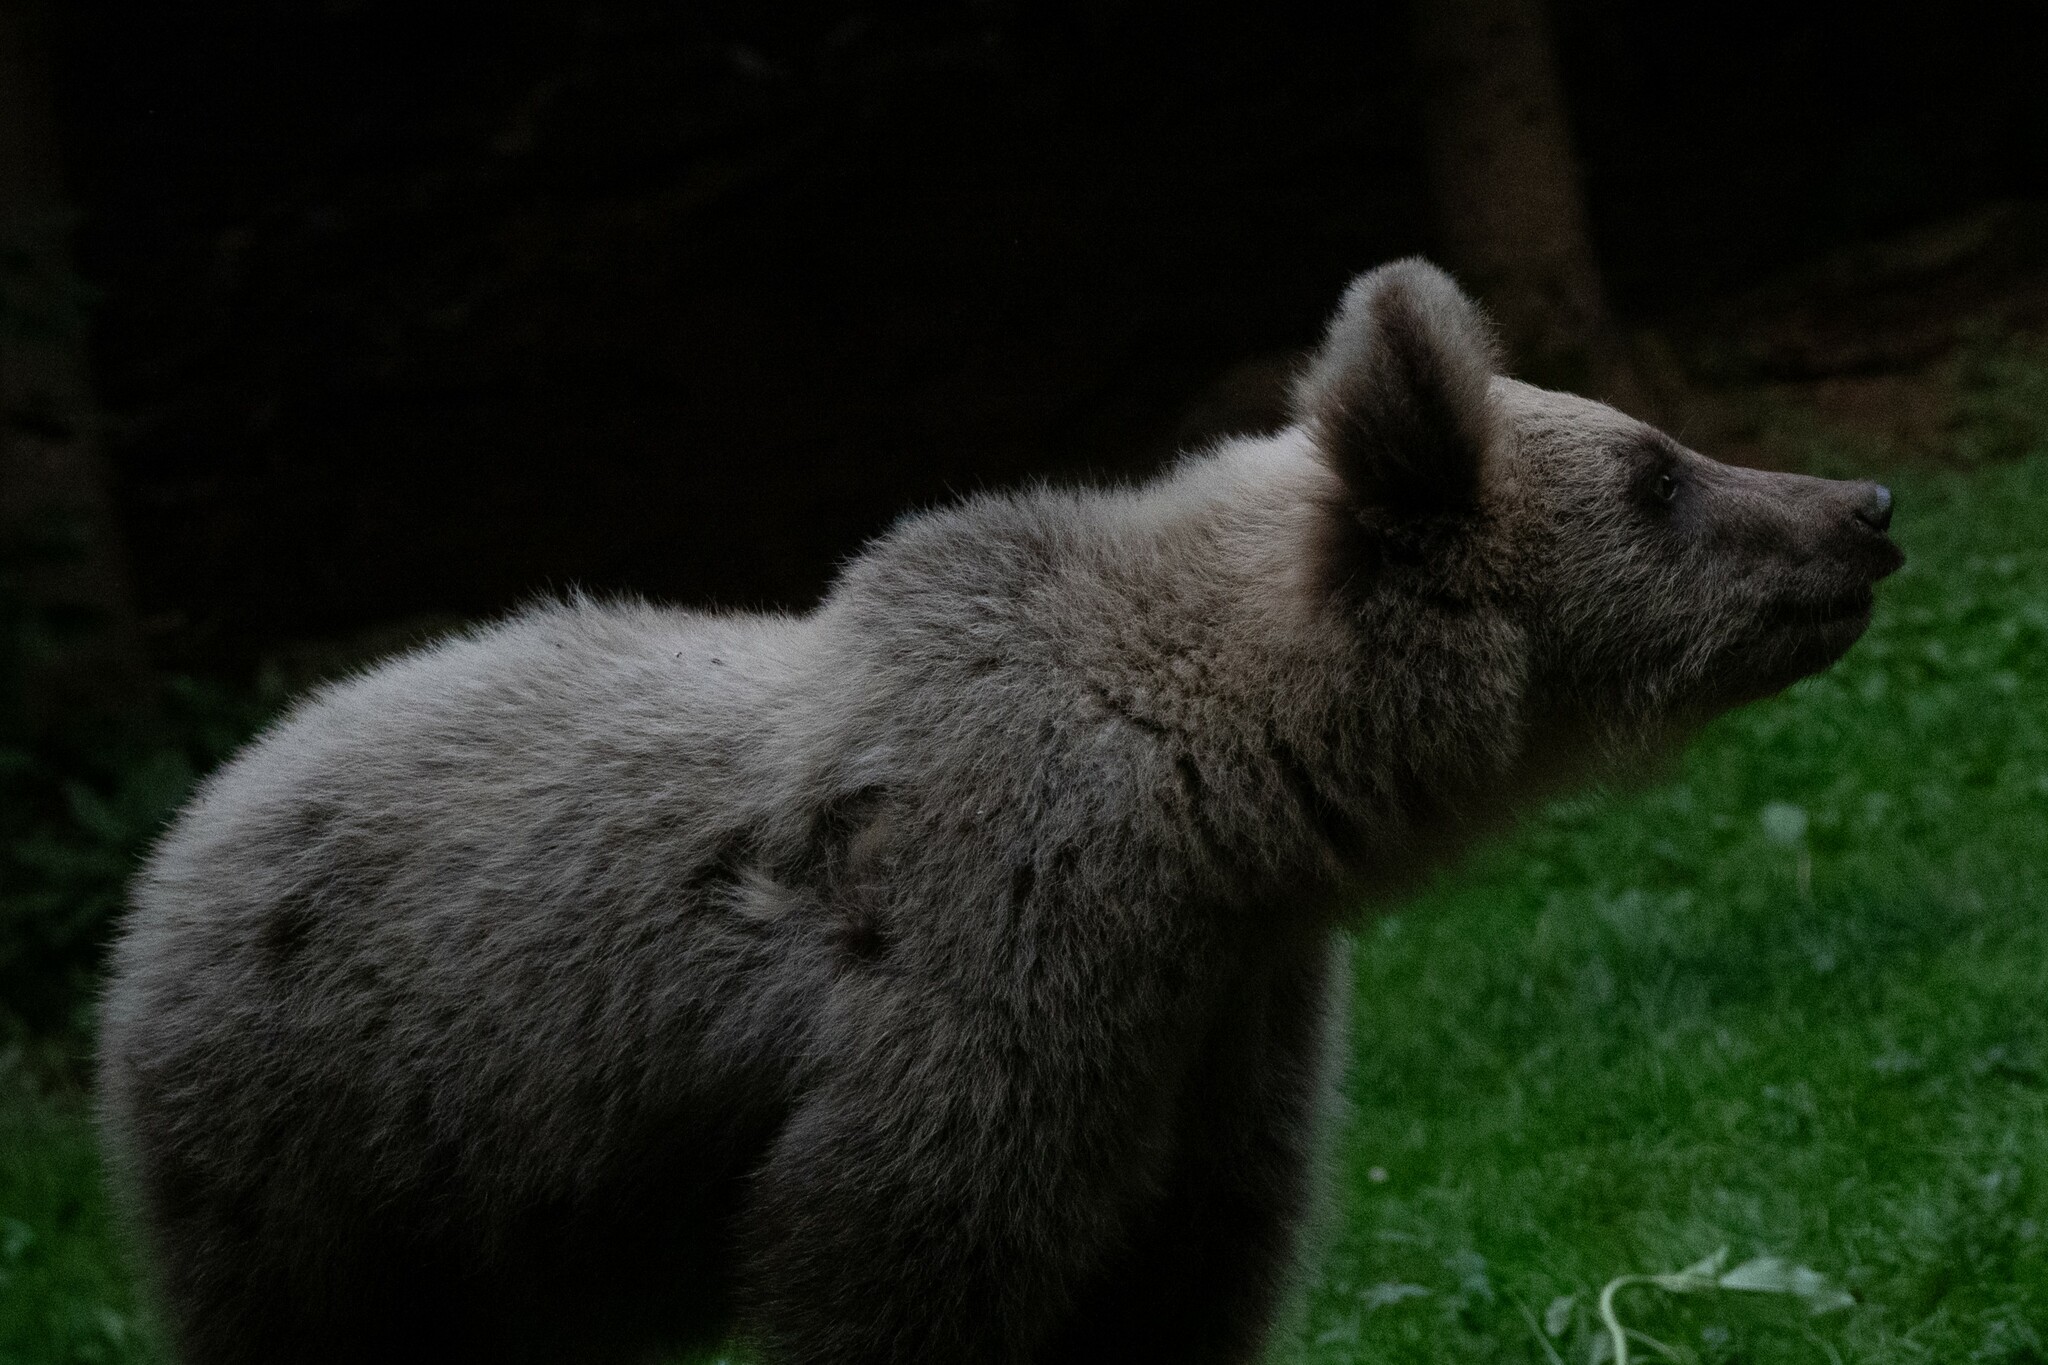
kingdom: Animalia
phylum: Chordata
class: Mammalia
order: Carnivora
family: Ursidae
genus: Ursus
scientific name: Ursus arctos
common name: Brown bear
